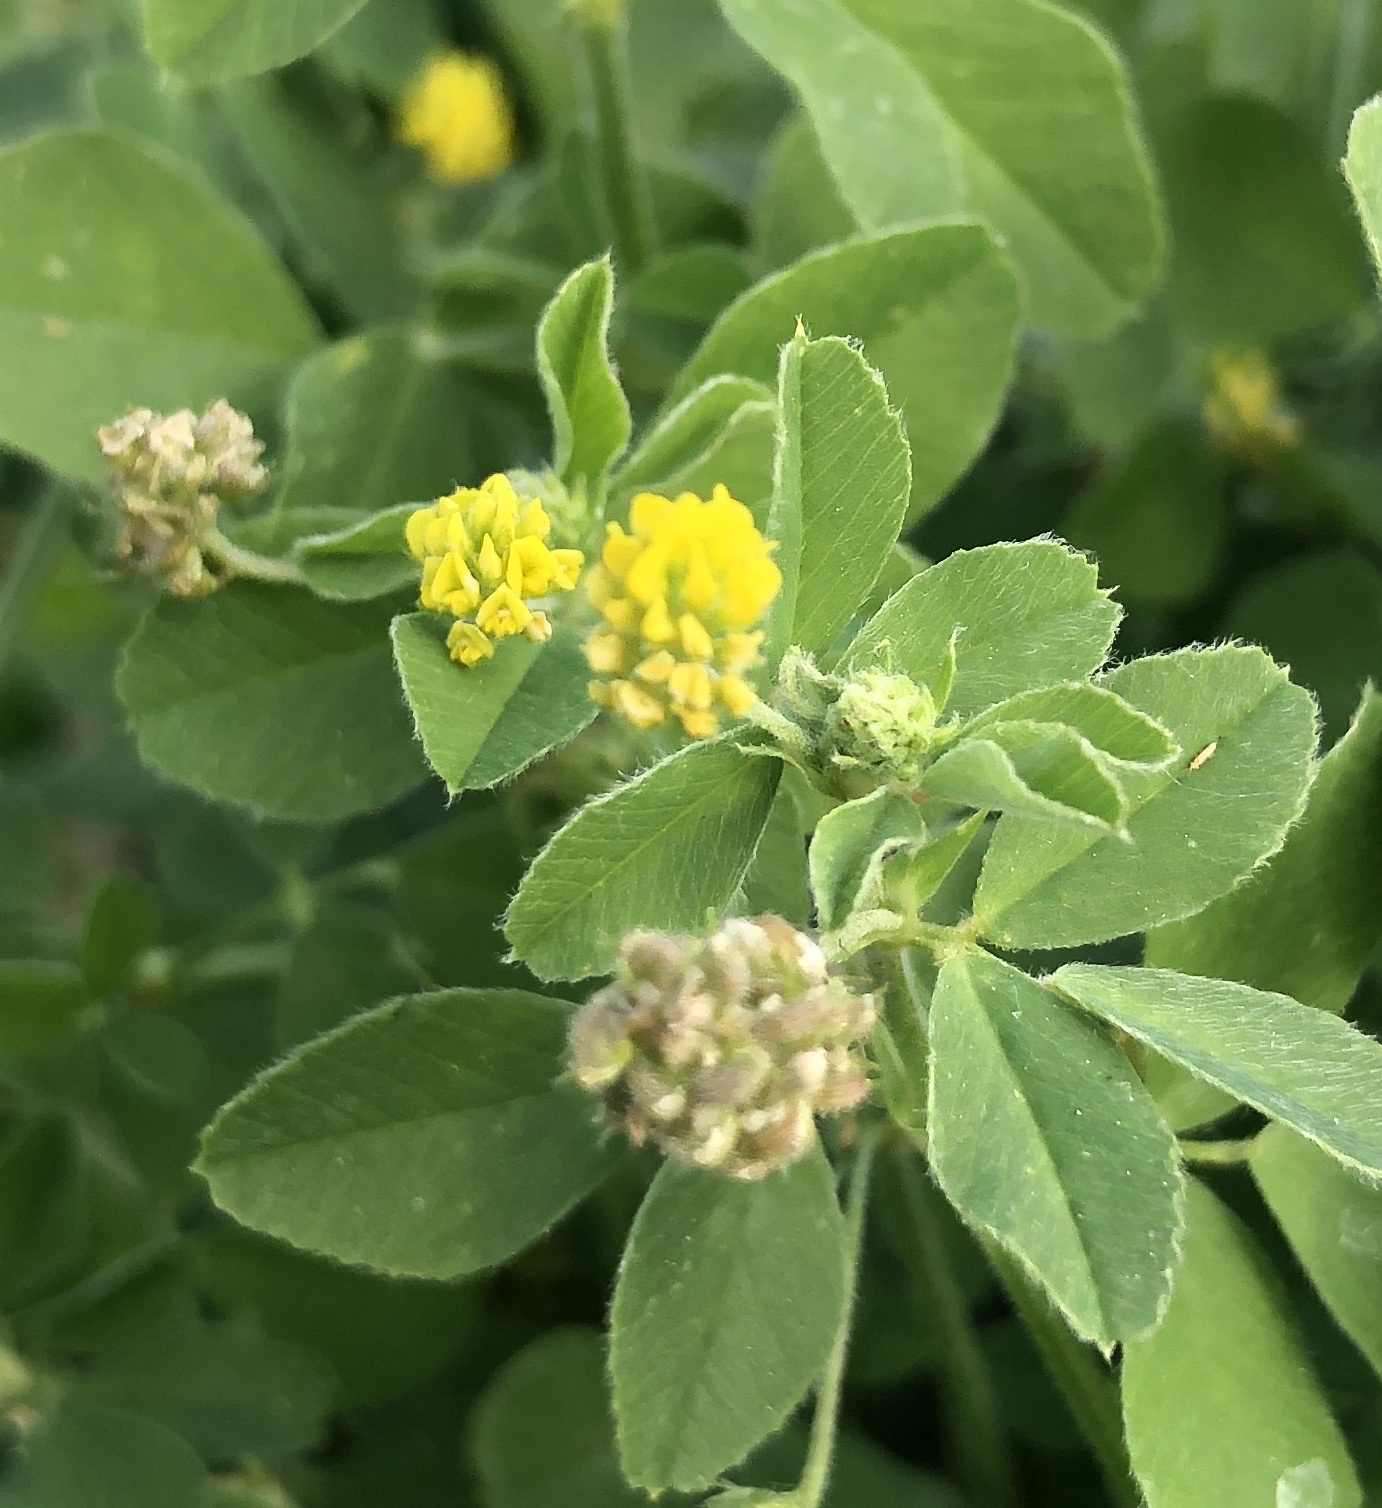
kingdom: Plantae
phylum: Tracheophyta
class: Magnoliopsida
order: Fabales
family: Fabaceae
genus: Medicago
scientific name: Medicago lupulina
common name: Black medick
